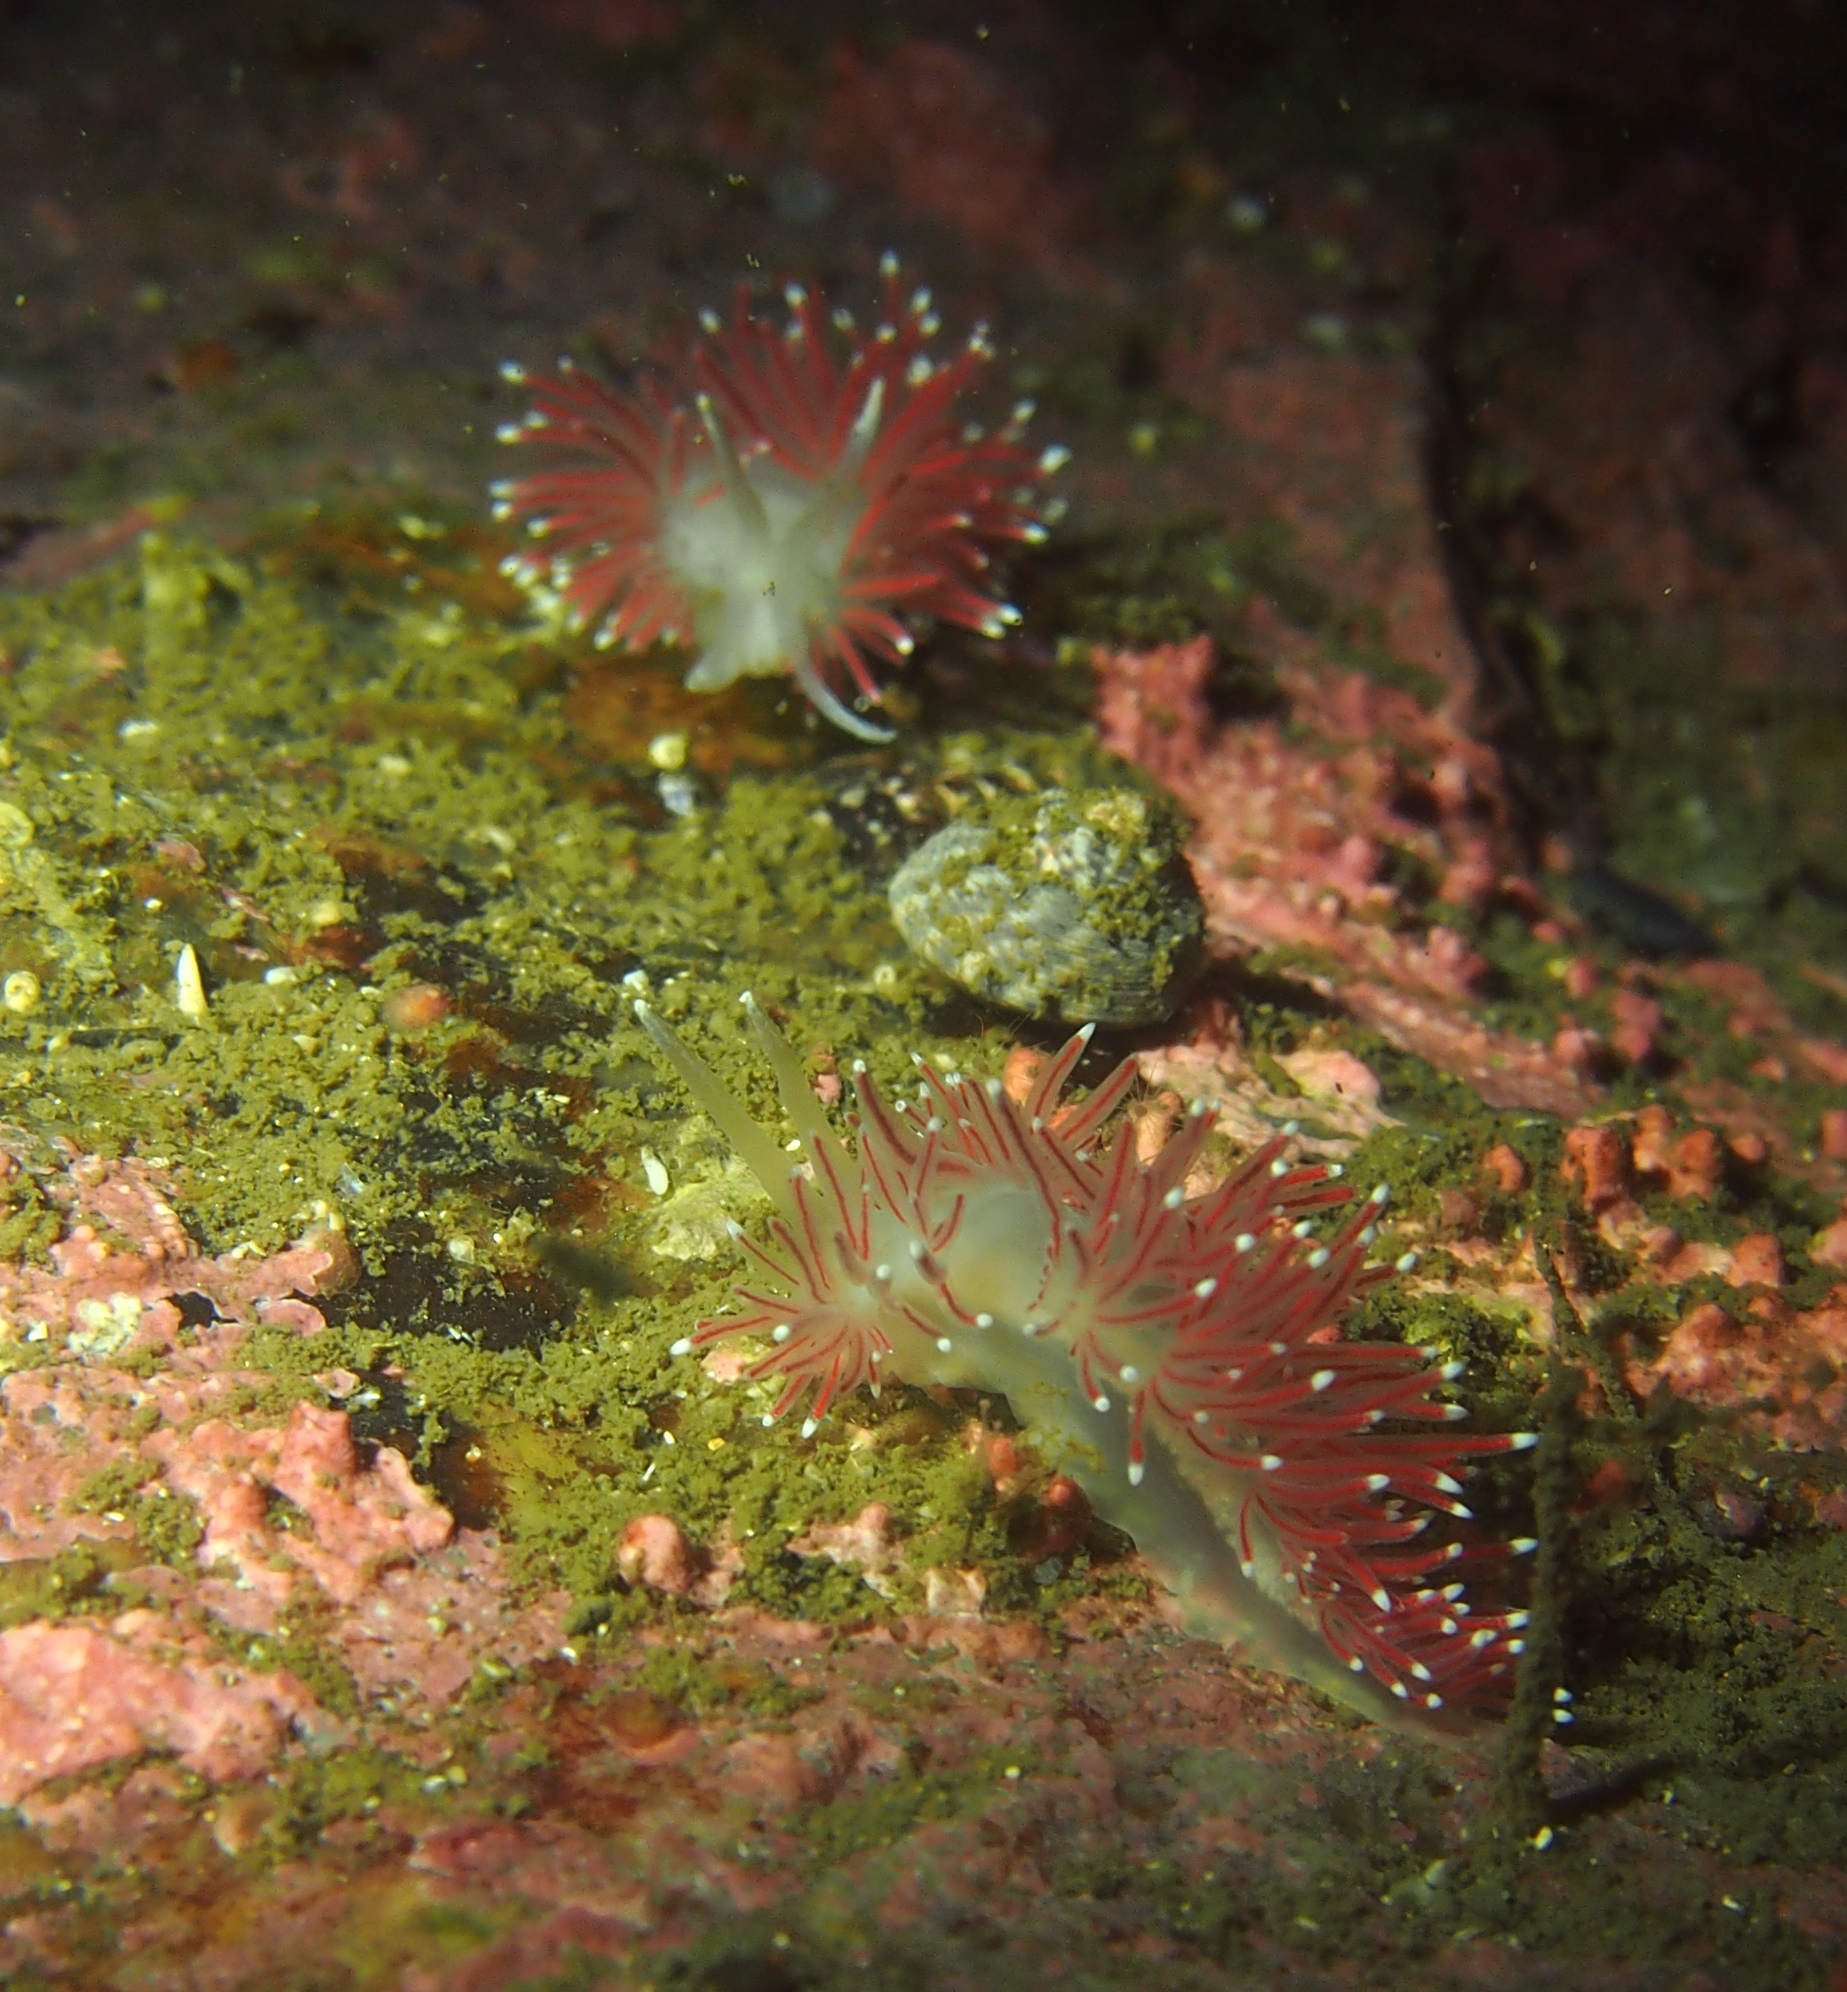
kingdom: Animalia
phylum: Mollusca
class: Gastropoda
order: Nudibranchia
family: Flabellinidae
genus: Carronella
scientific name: Carronella pellucida
